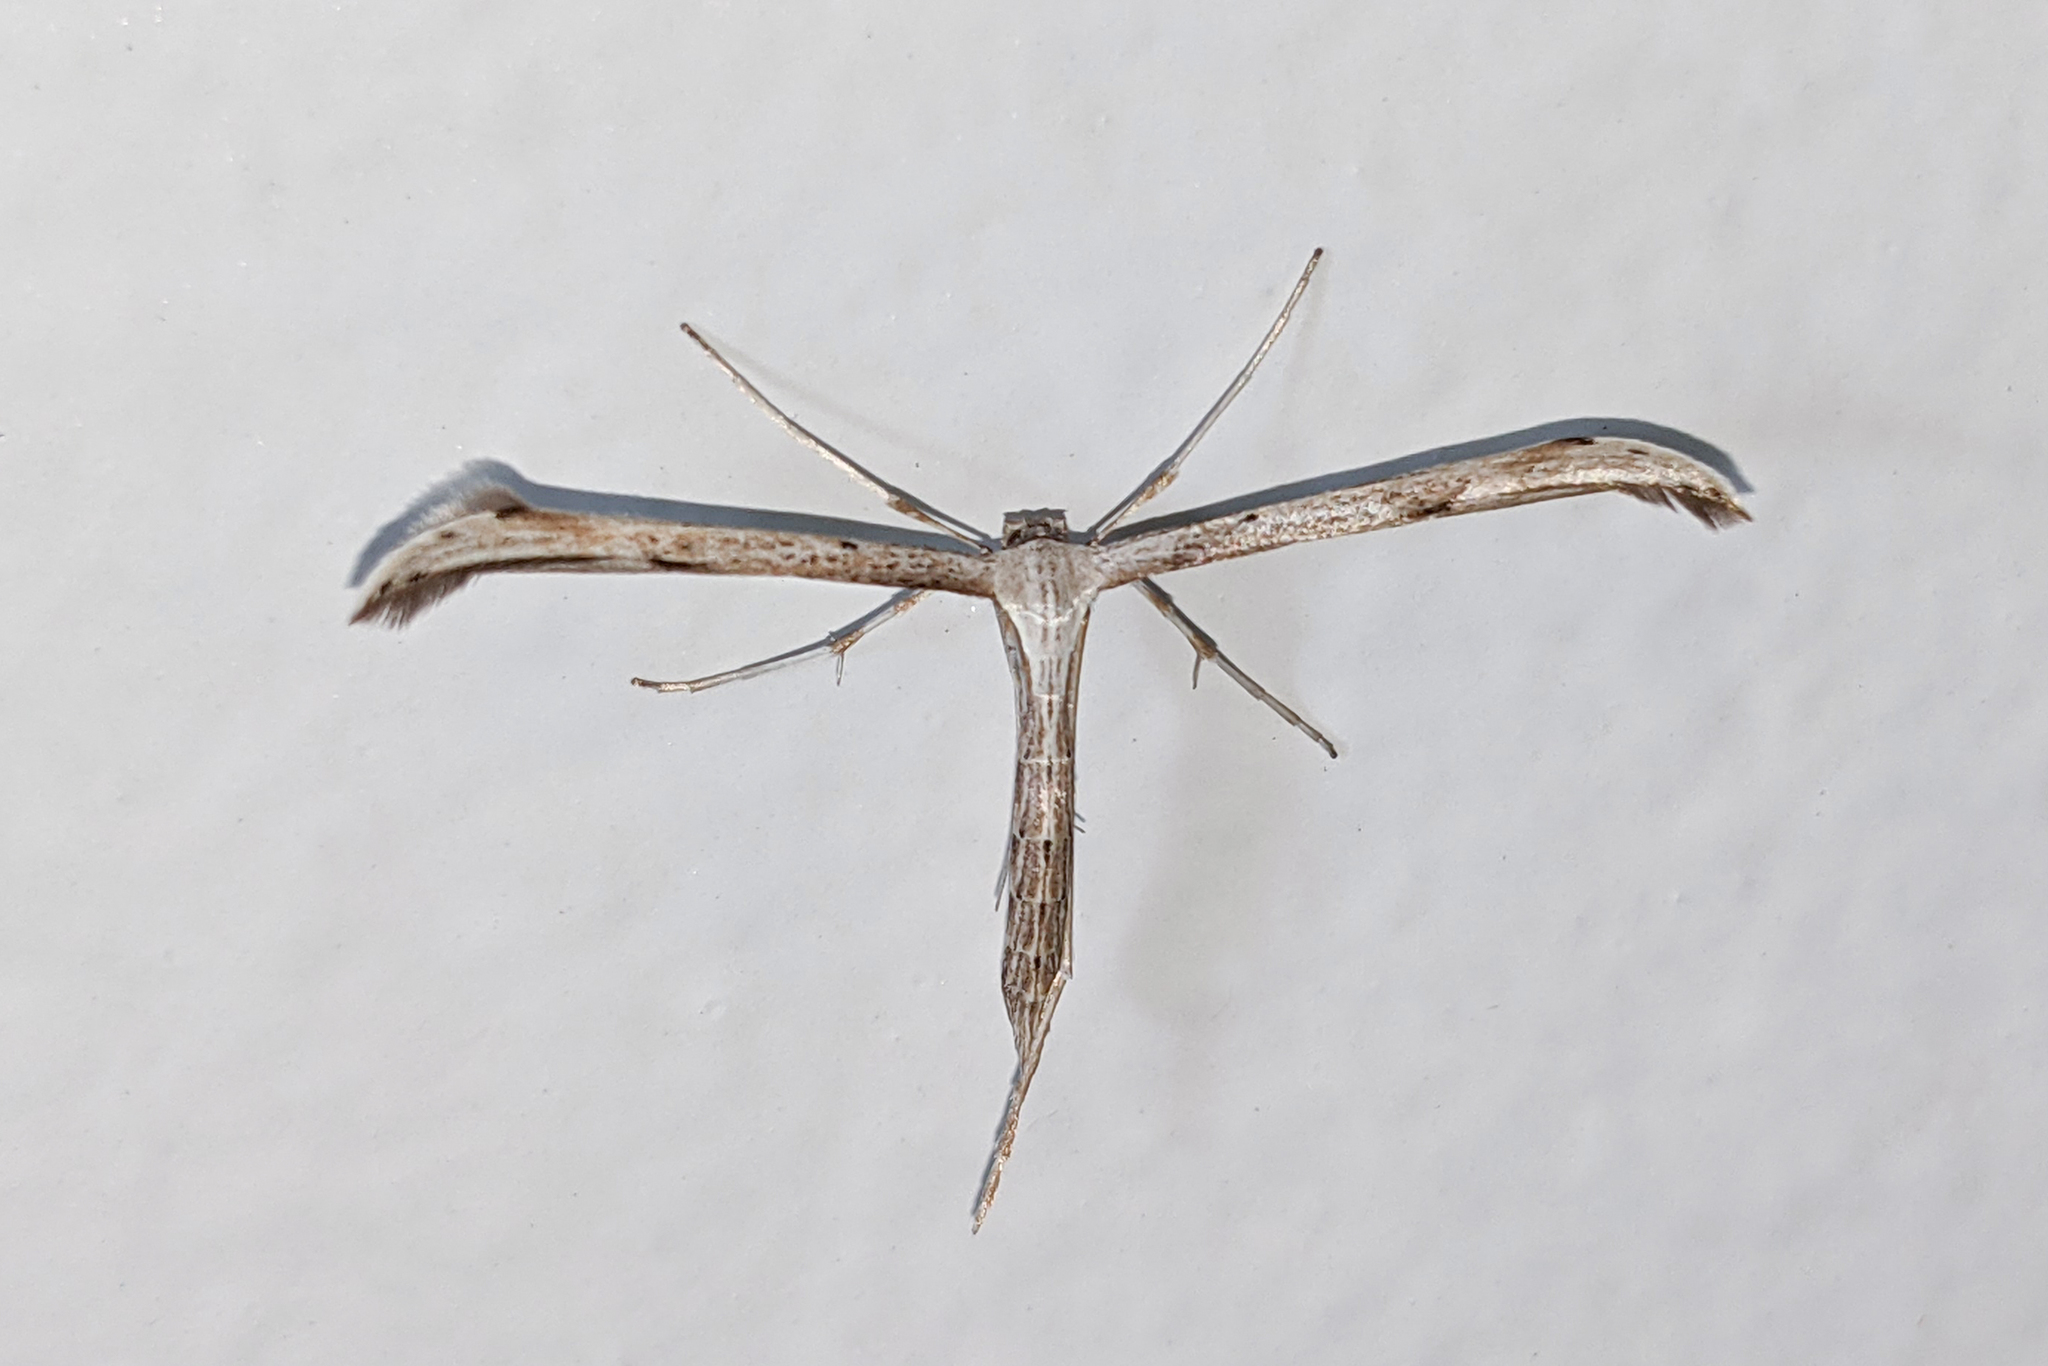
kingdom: Animalia
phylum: Arthropoda
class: Insecta
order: Lepidoptera
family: Pterophoridae
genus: Emmelina
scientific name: Emmelina monodactyla
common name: Common plume
